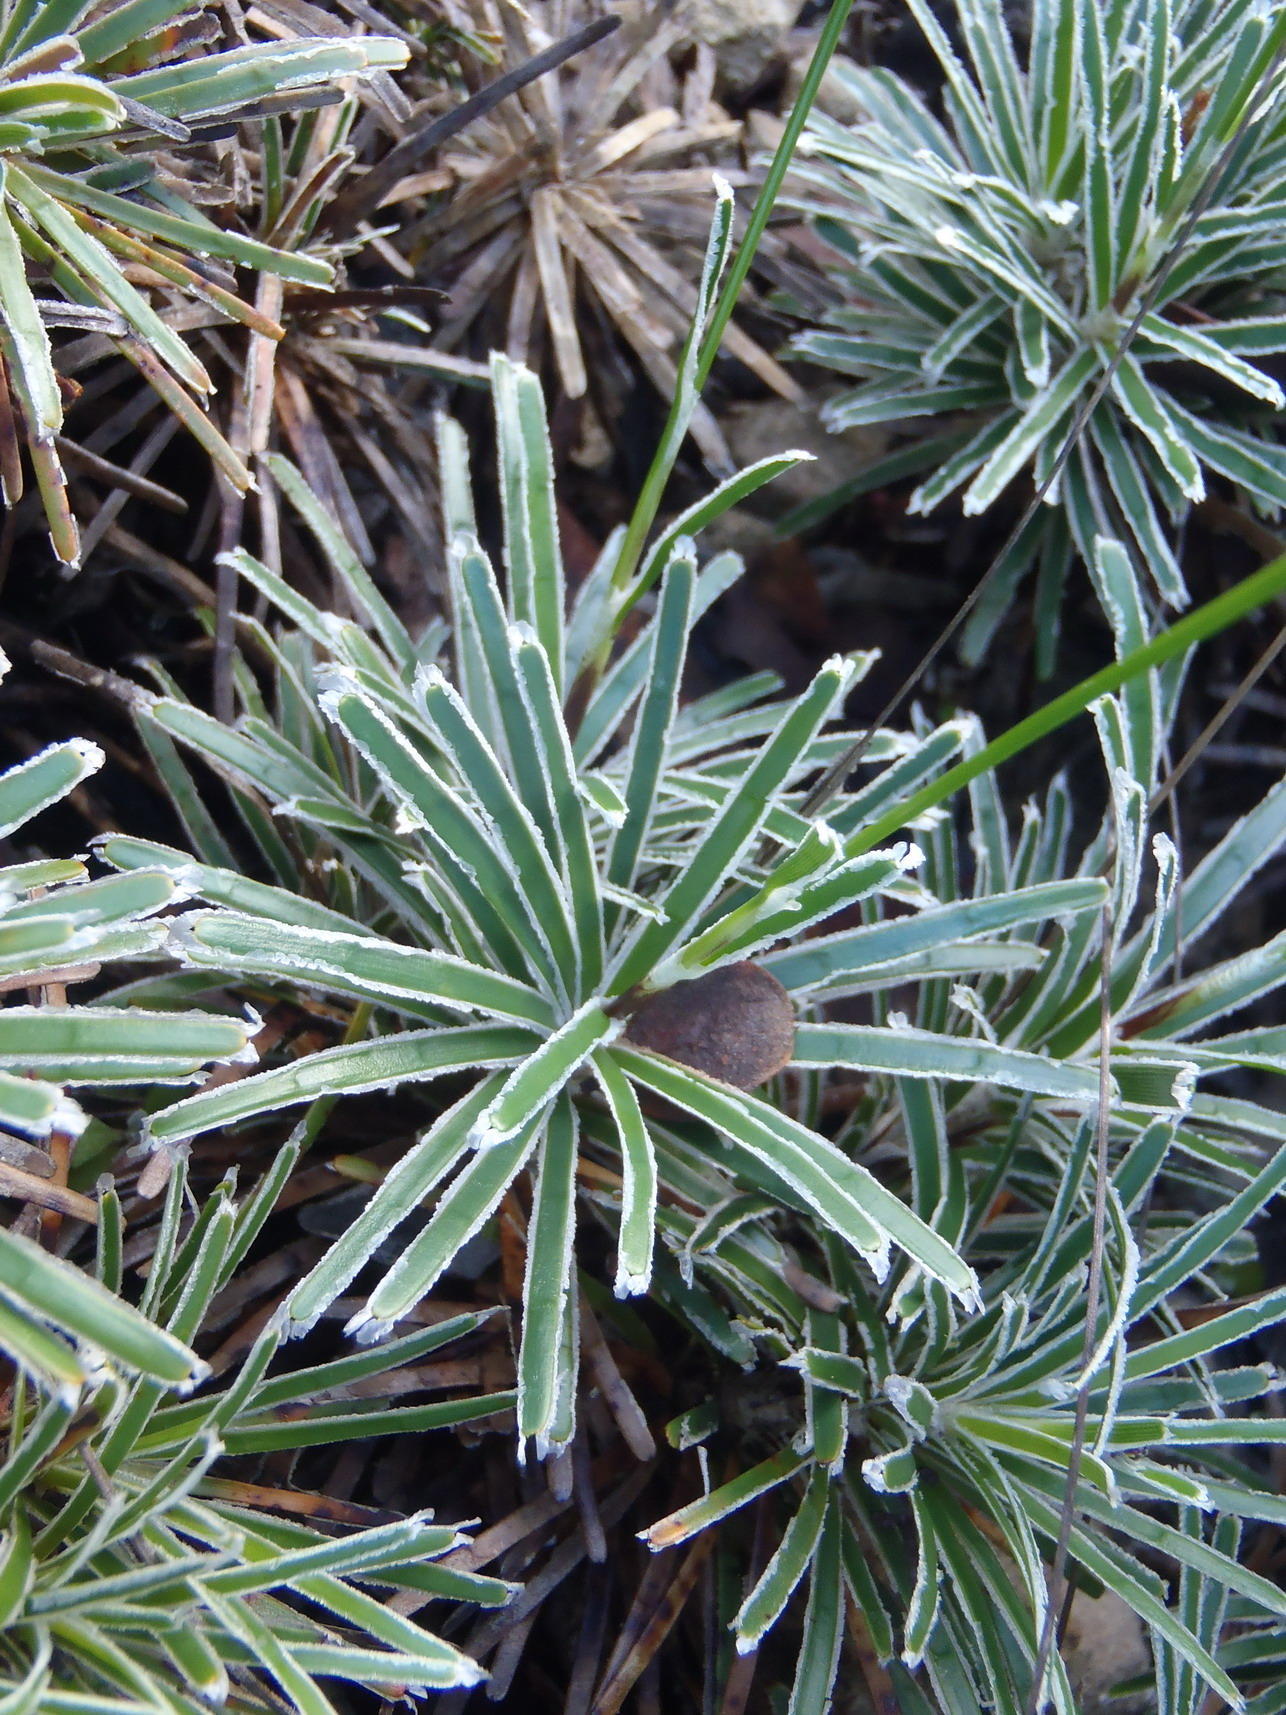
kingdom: Plantae
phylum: Tracheophyta
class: Liliopsida
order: Poales
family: Cyperaceae
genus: Ficinia
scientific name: Ficinia truncata
